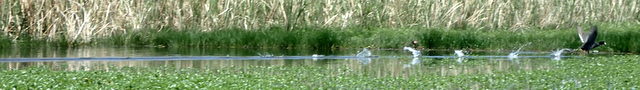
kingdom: Animalia
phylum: Chordata
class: Aves
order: Gruiformes
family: Rallidae
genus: Fulica
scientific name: Fulica americana
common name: American coot
